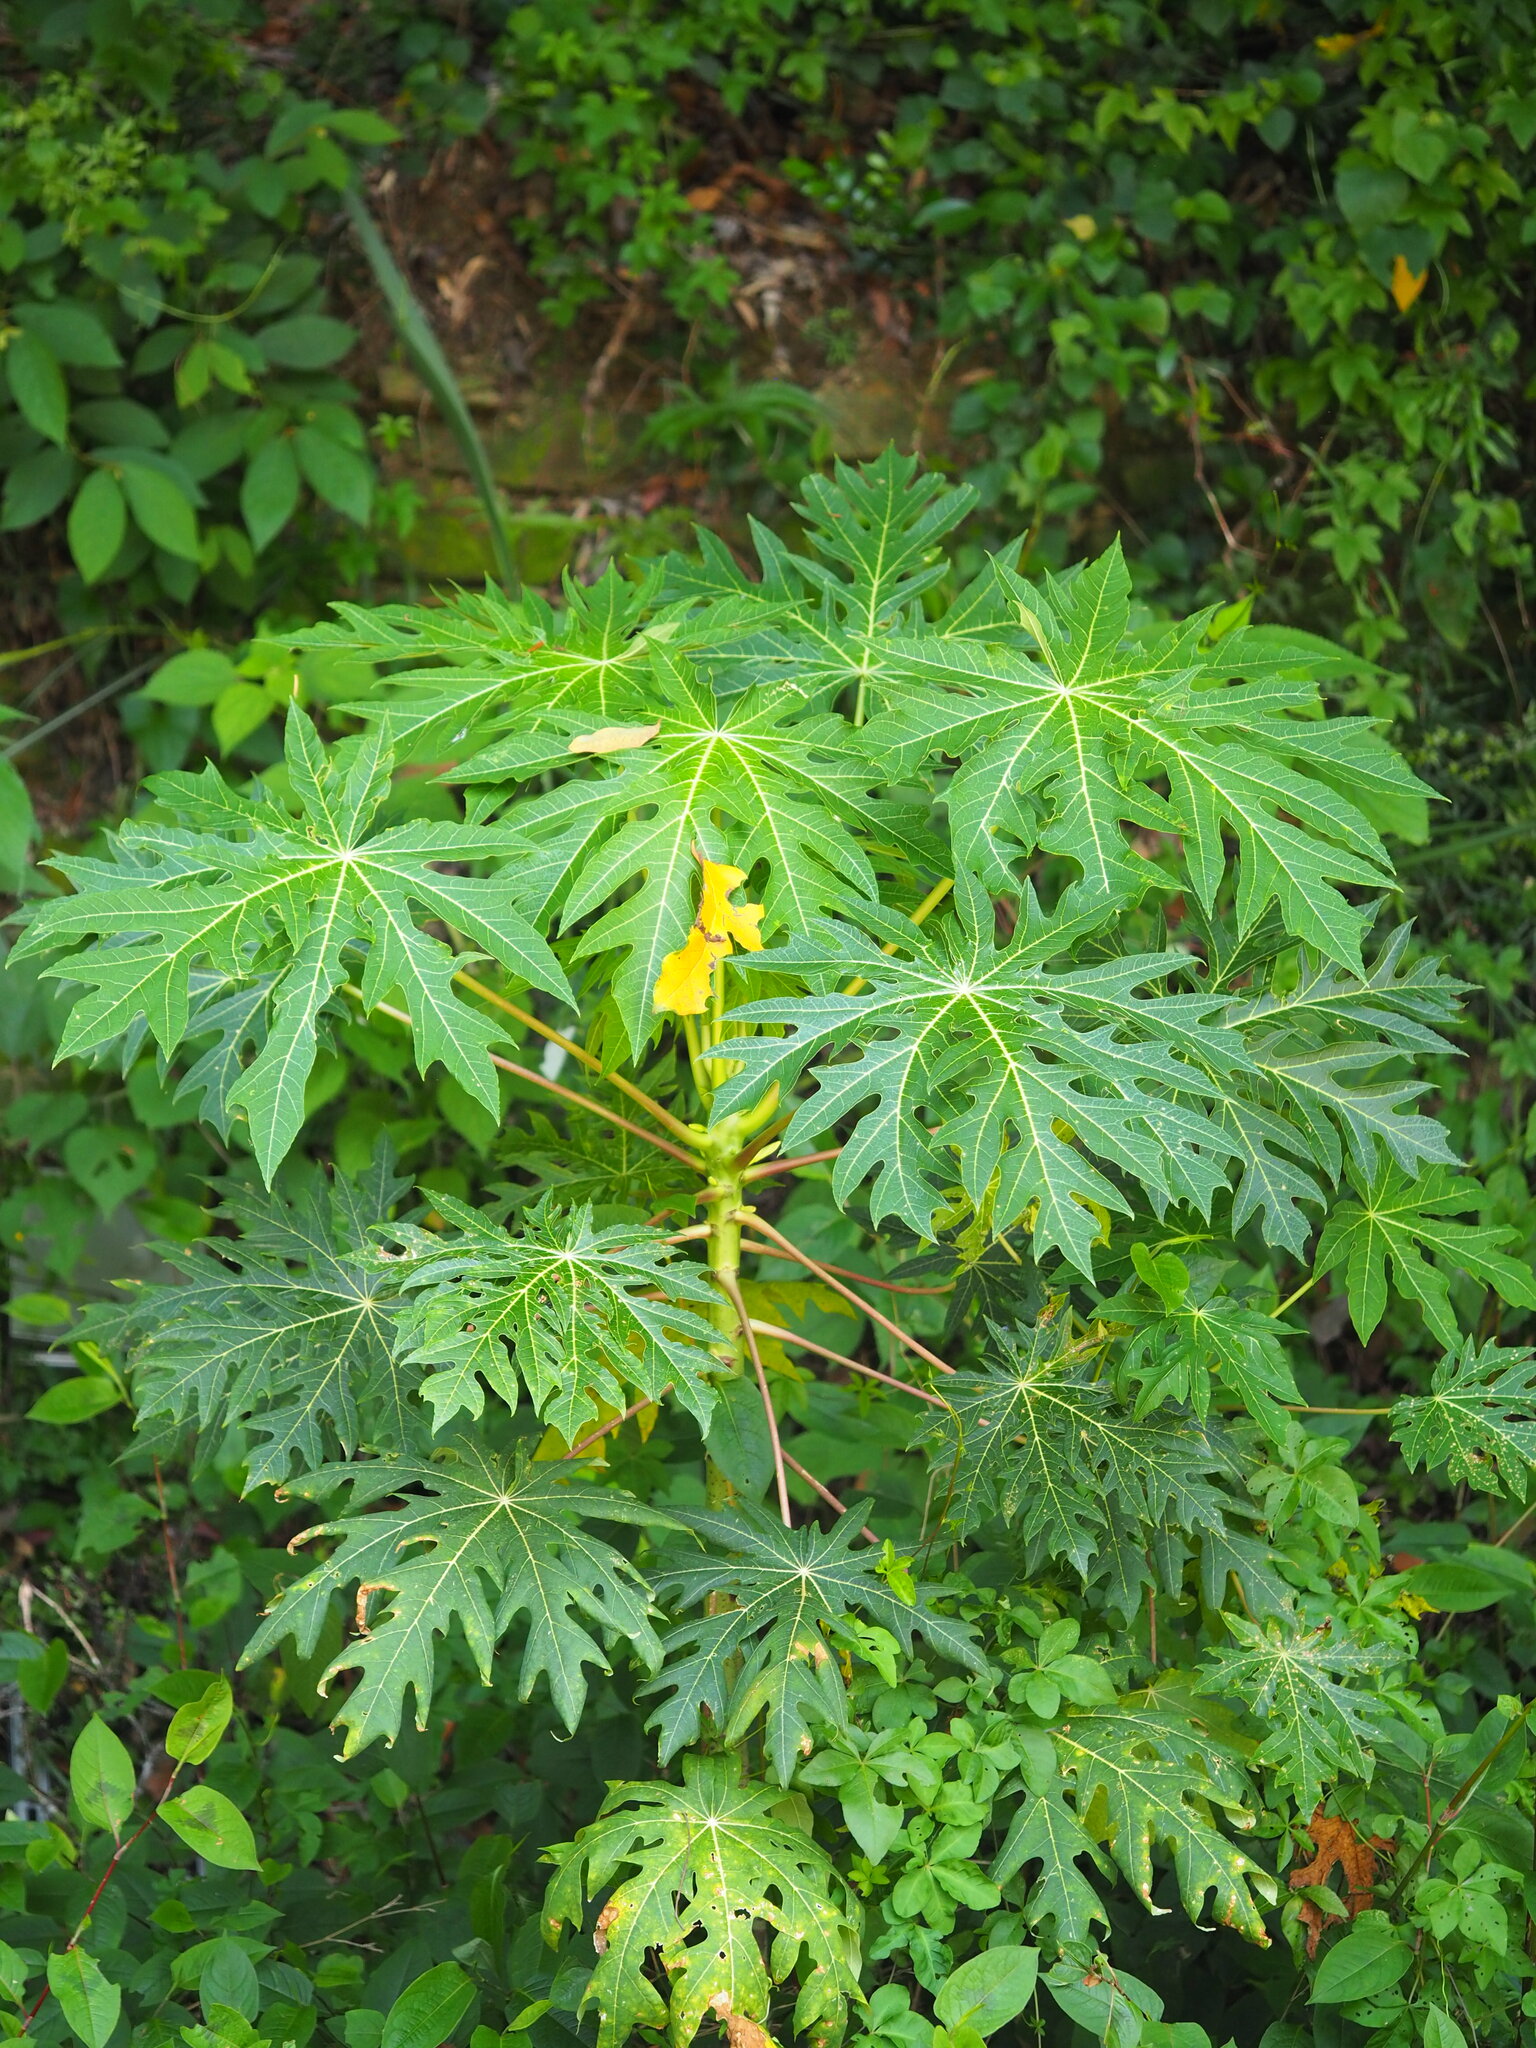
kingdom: Plantae
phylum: Tracheophyta
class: Magnoliopsida
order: Brassicales
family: Caricaceae
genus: Carica
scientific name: Carica papaya
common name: Papaya
